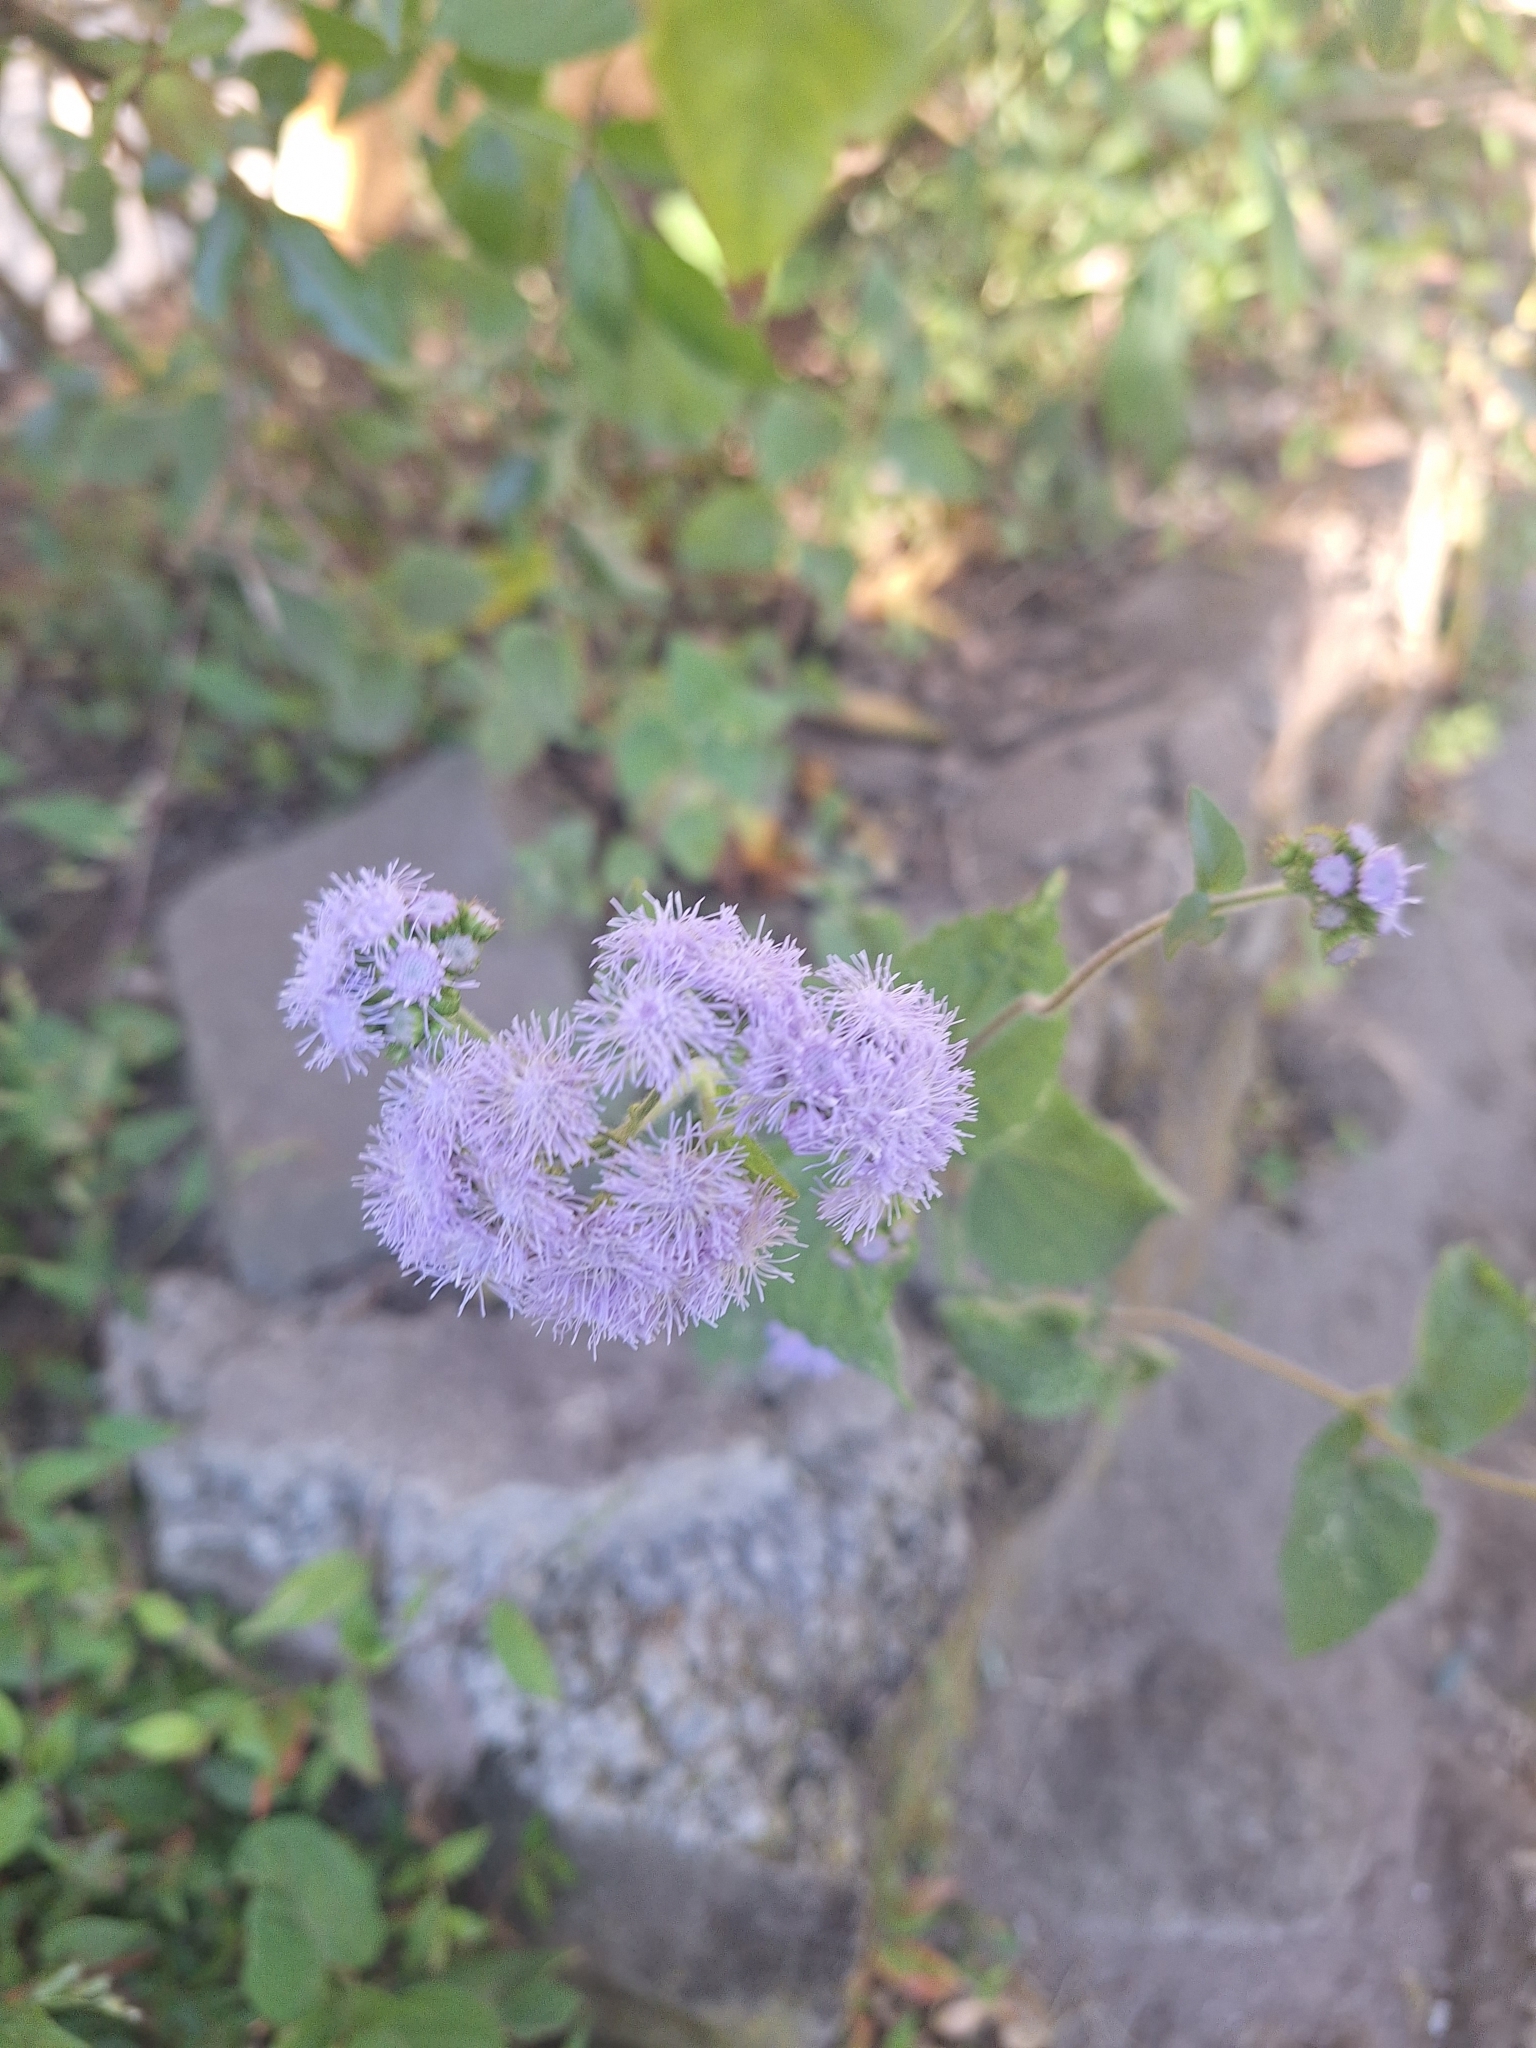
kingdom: Plantae
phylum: Tracheophyta
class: Magnoliopsida
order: Asterales
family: Asteraceae
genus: Ageratum
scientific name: Ageratum houstonianum
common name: Bluemink
